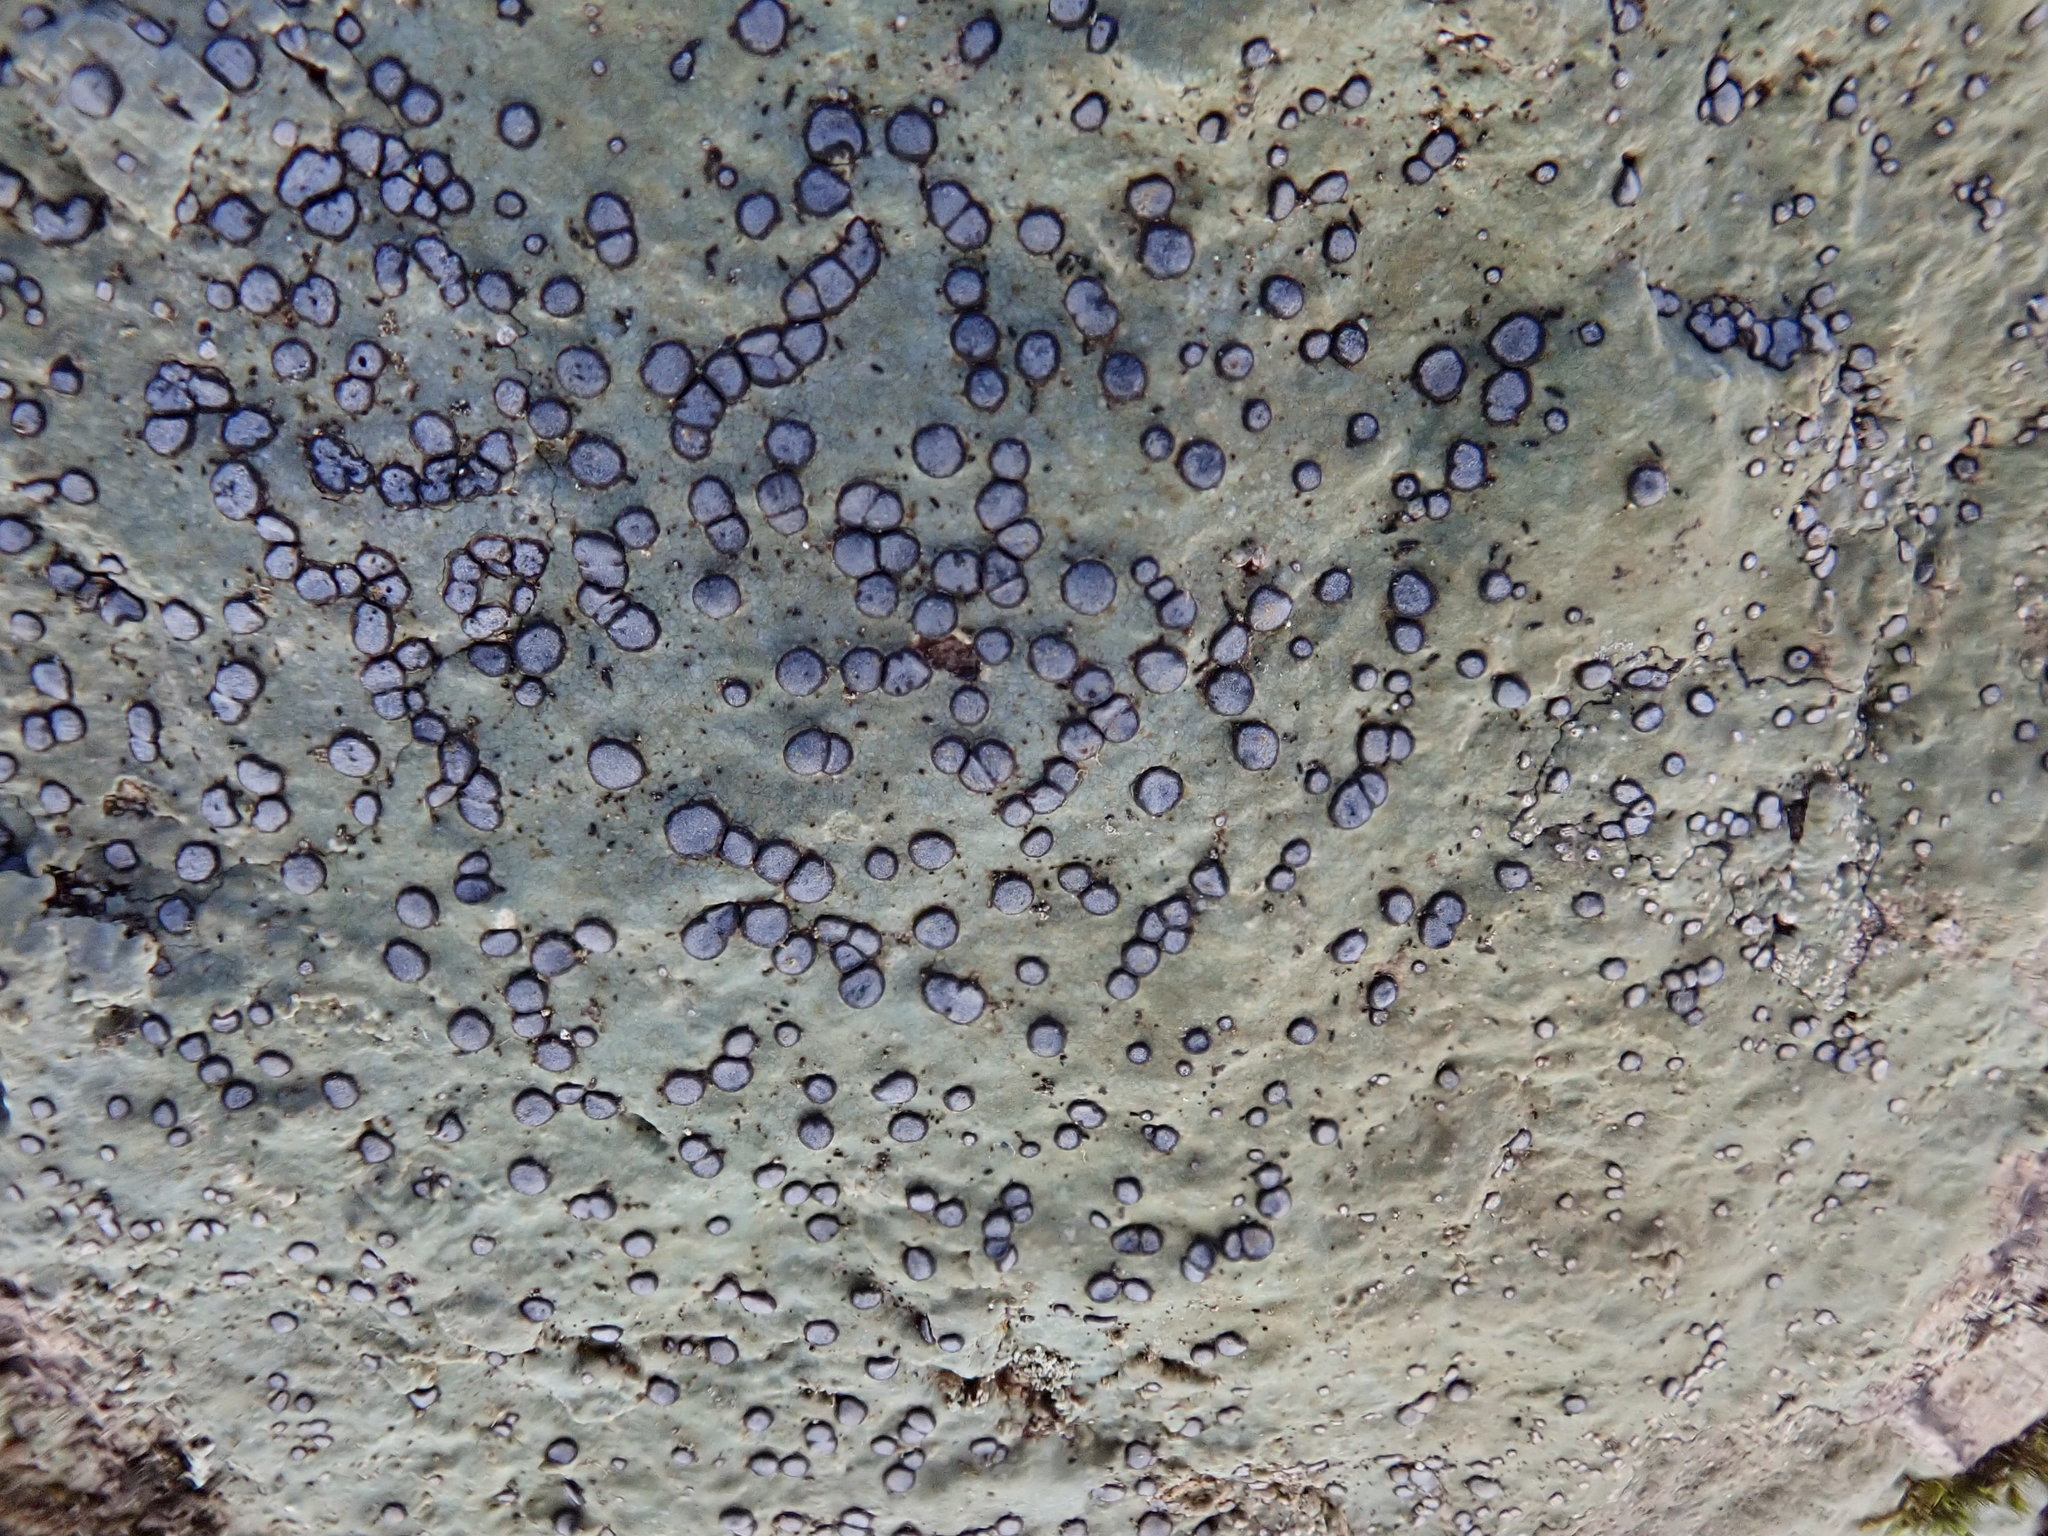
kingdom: Fungi
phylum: Ascomycota
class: Lecanoromycetes
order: Lecideales
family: Lecideaceae
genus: Porpidia
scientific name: Porpidia albocaerulescens
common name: Smokey-eyed boulder lichen
